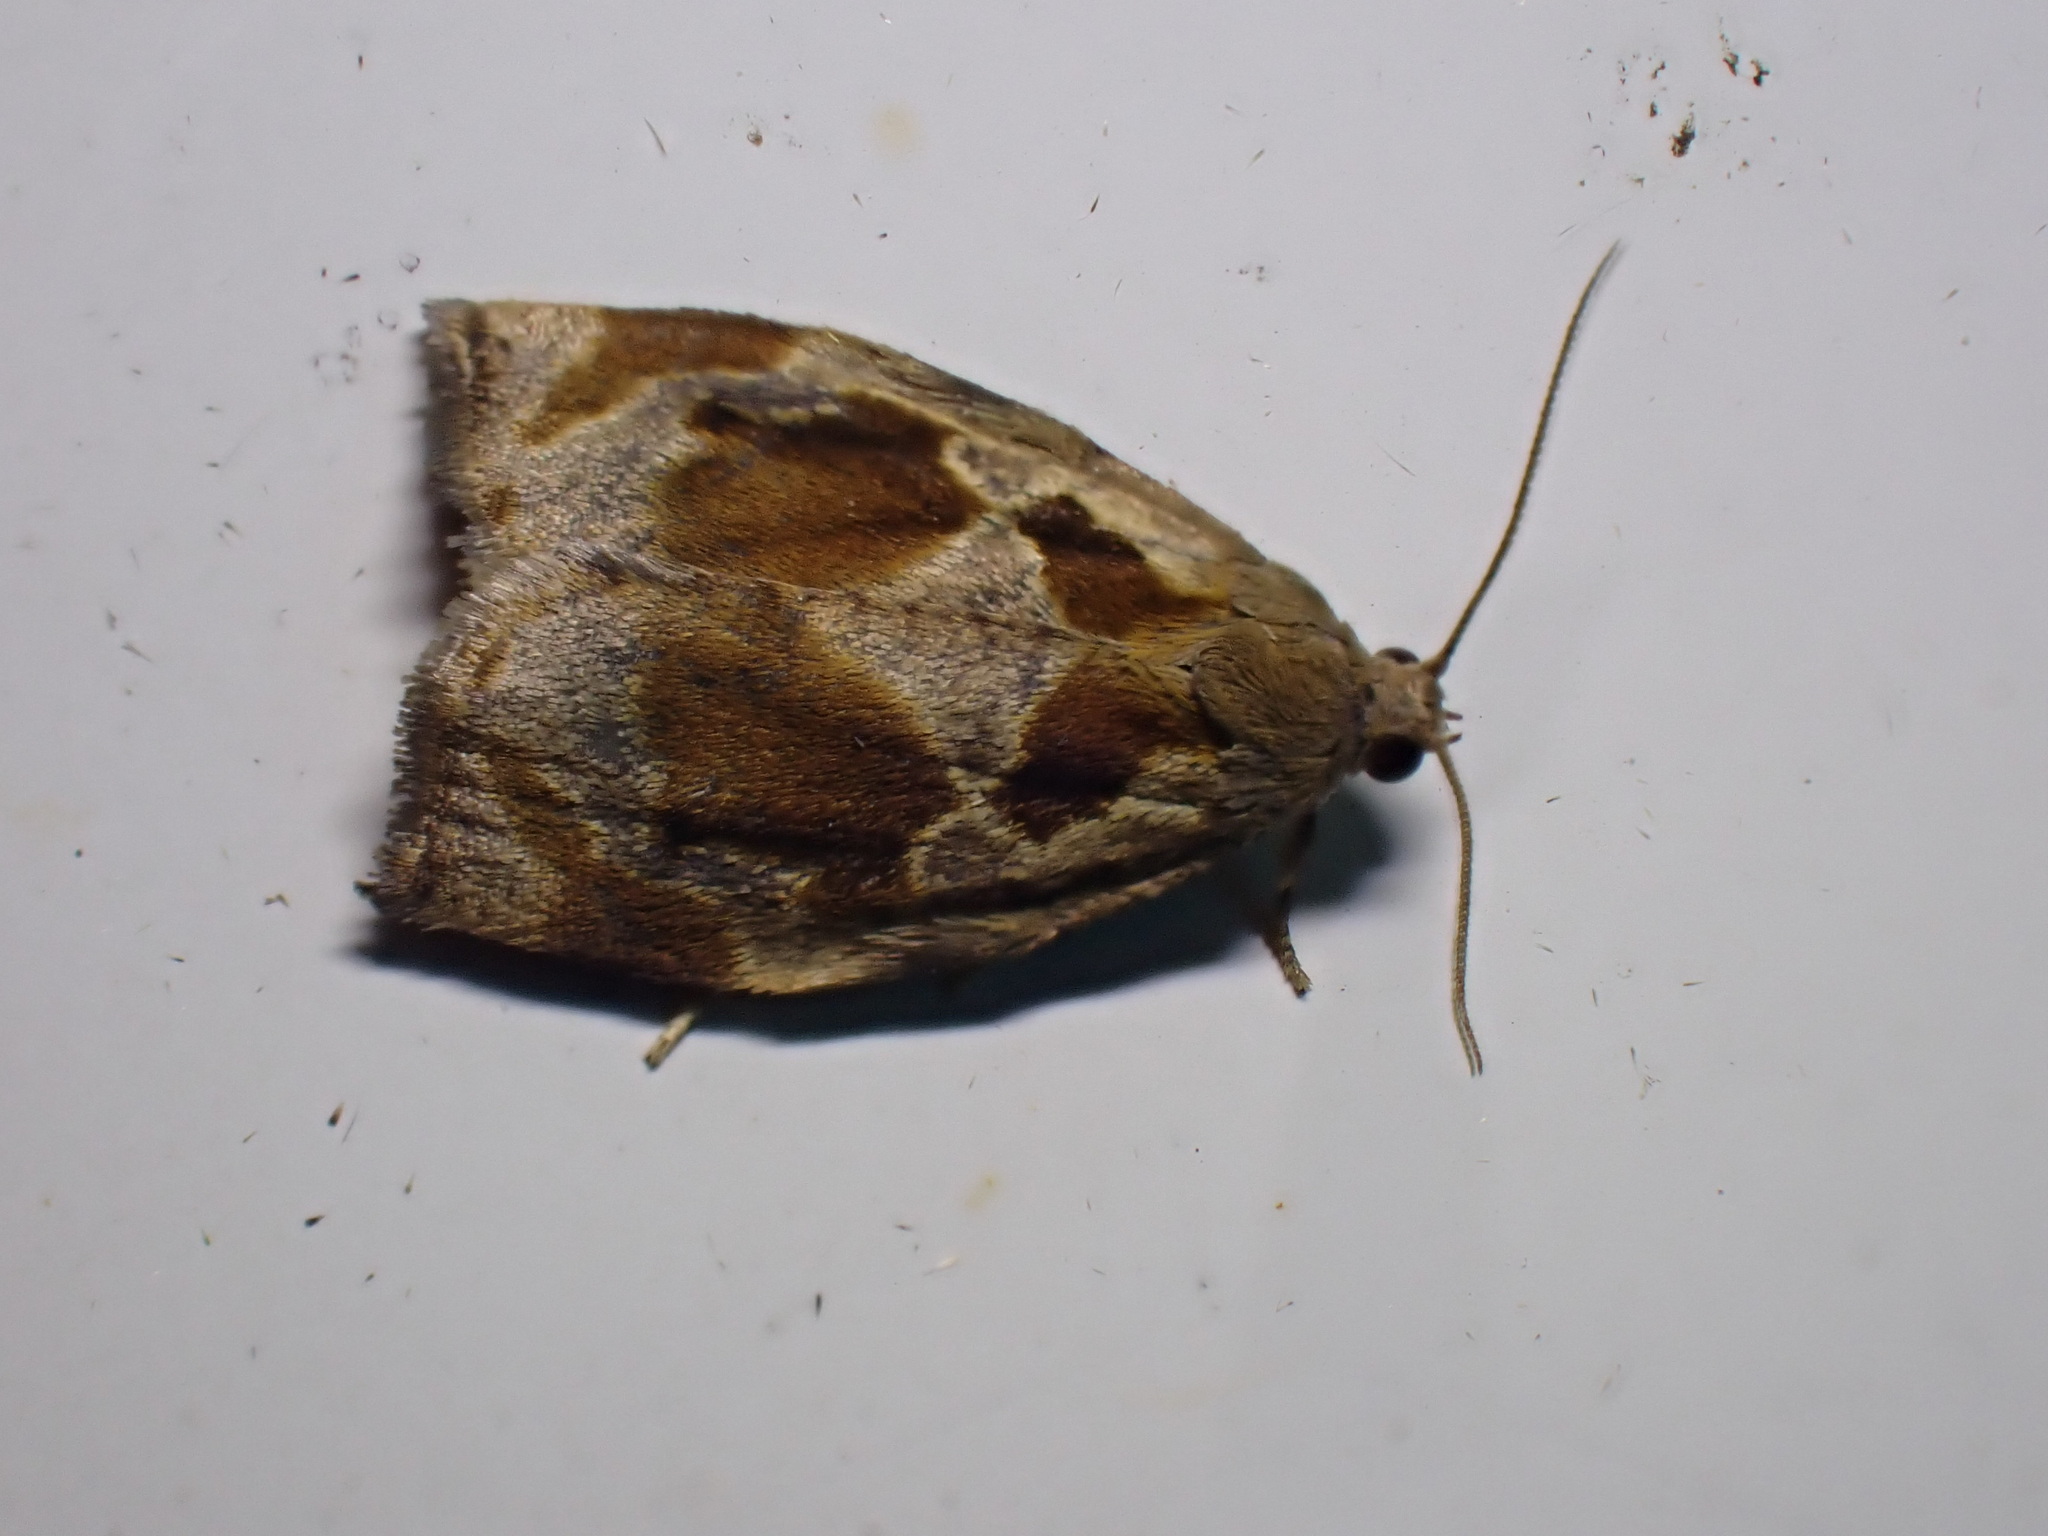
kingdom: Animalia
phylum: Arthropoda
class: Insecta
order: Lepidoptera
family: Tortricidae
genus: Archips
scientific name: Archips crataegana
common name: Brown oak tortrix
